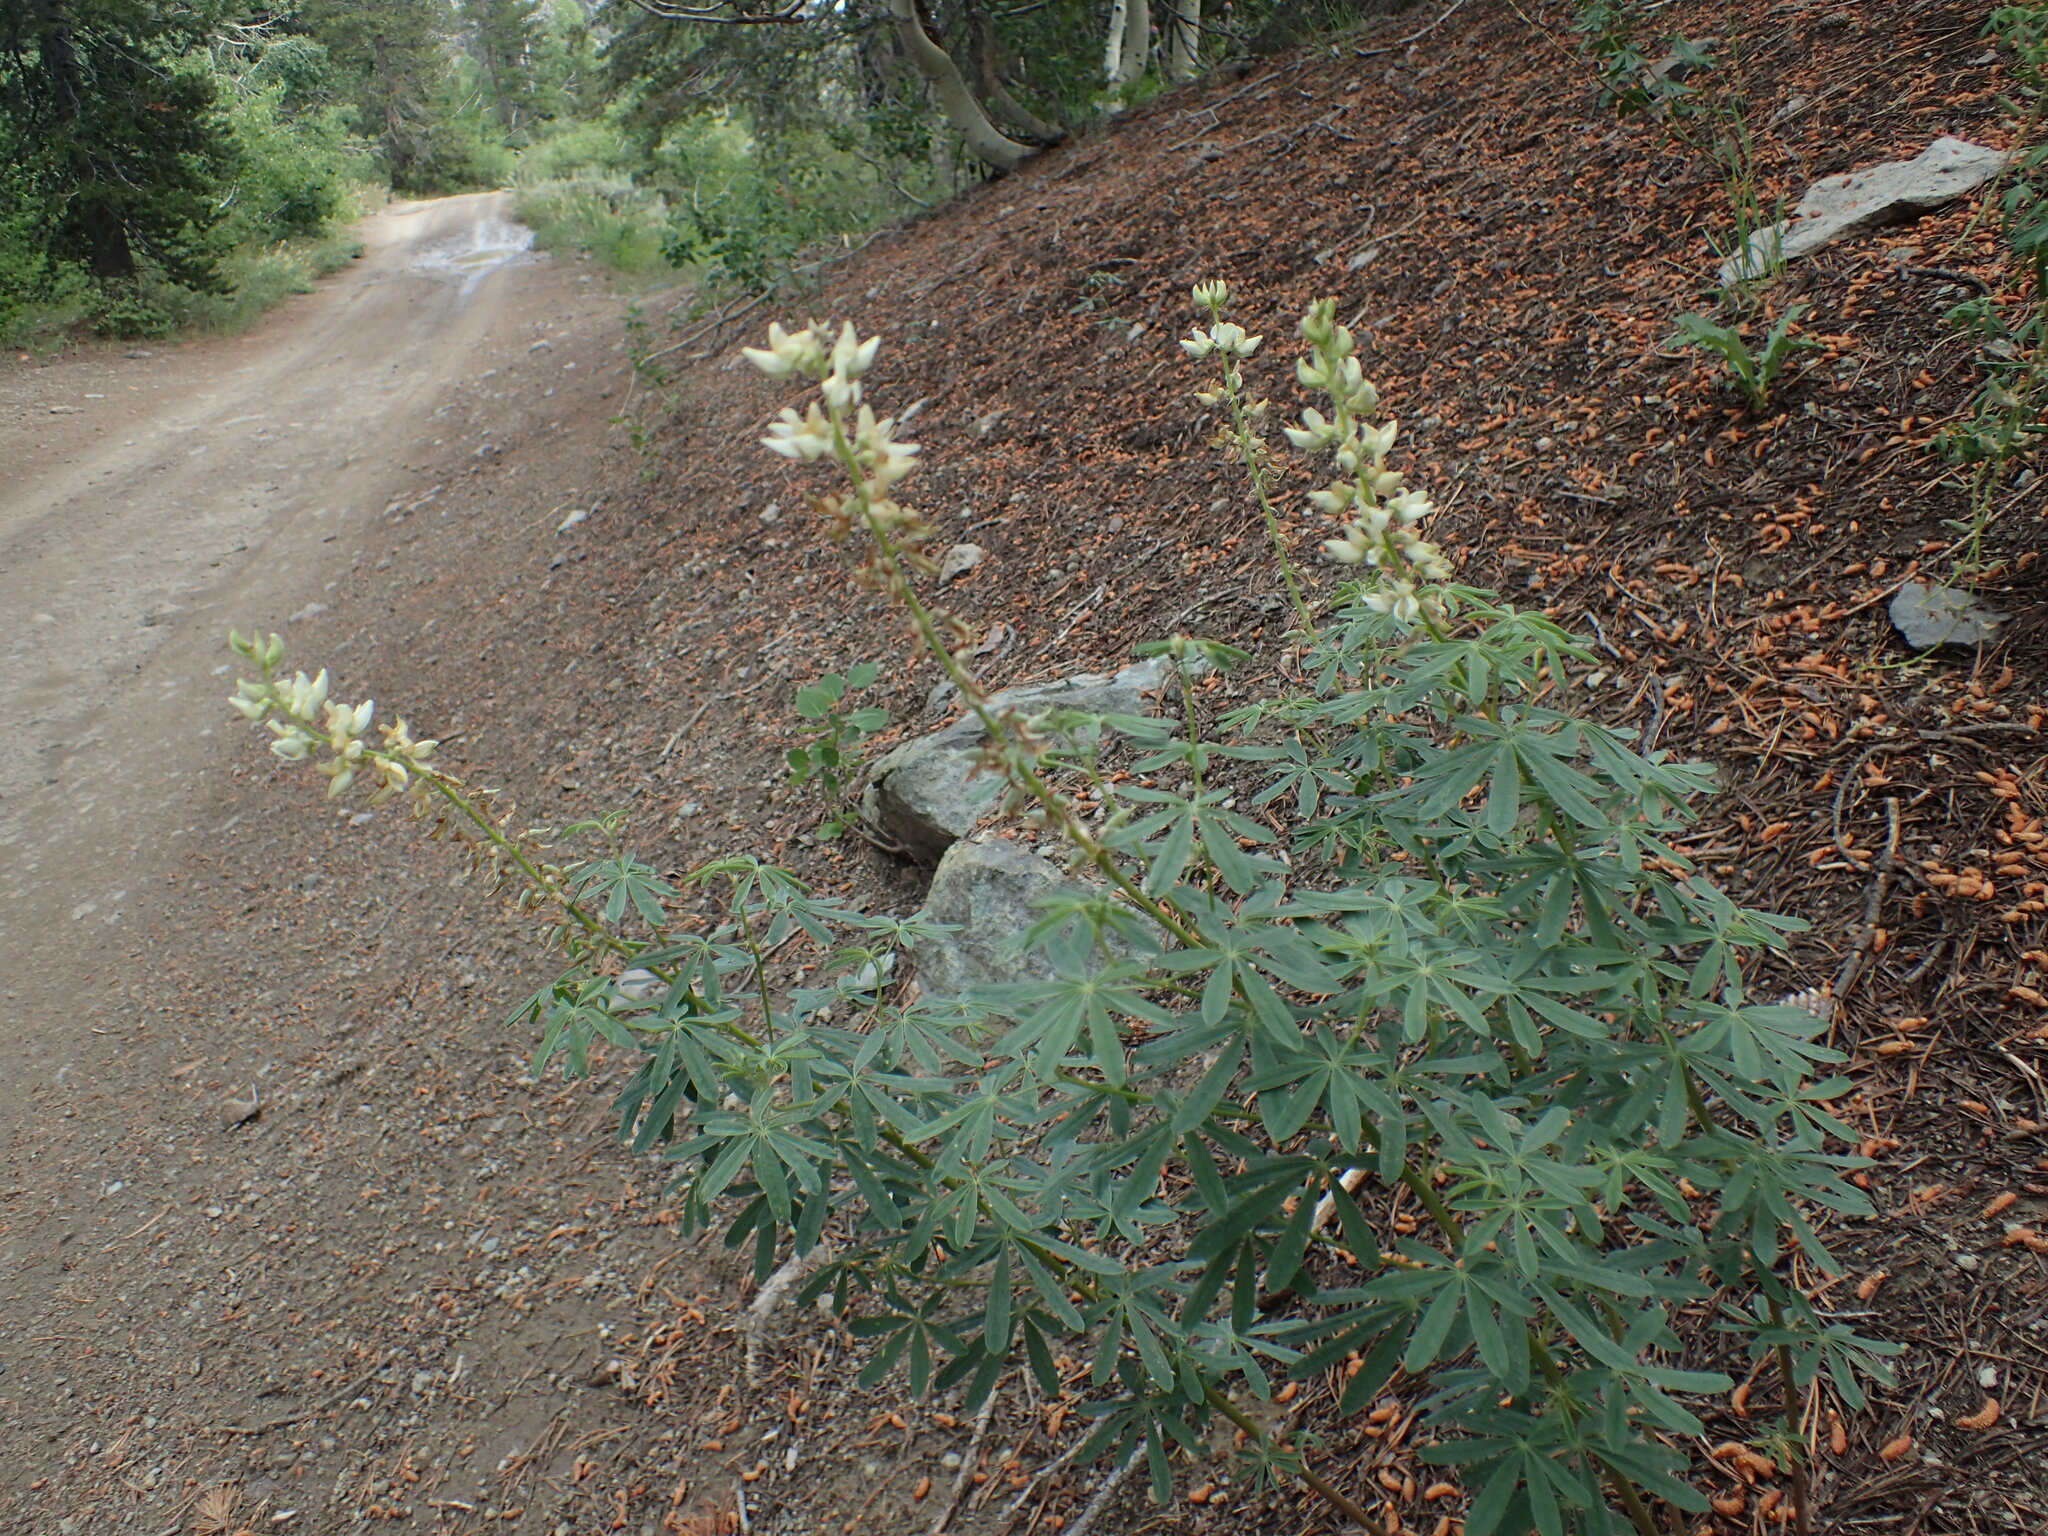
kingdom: Plantae
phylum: Tracheophyta
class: Magnoliopsida
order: Fabales
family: Fabaceae
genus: Lupinus
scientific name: Lupinus angustiflorus
